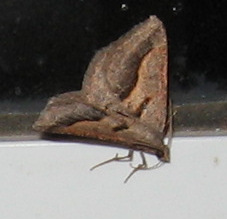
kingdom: Animalia
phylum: Arthropoda
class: Insecta
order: Lepidoptera
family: Geometridae
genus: Digrammia
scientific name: Digrammia subminiata
